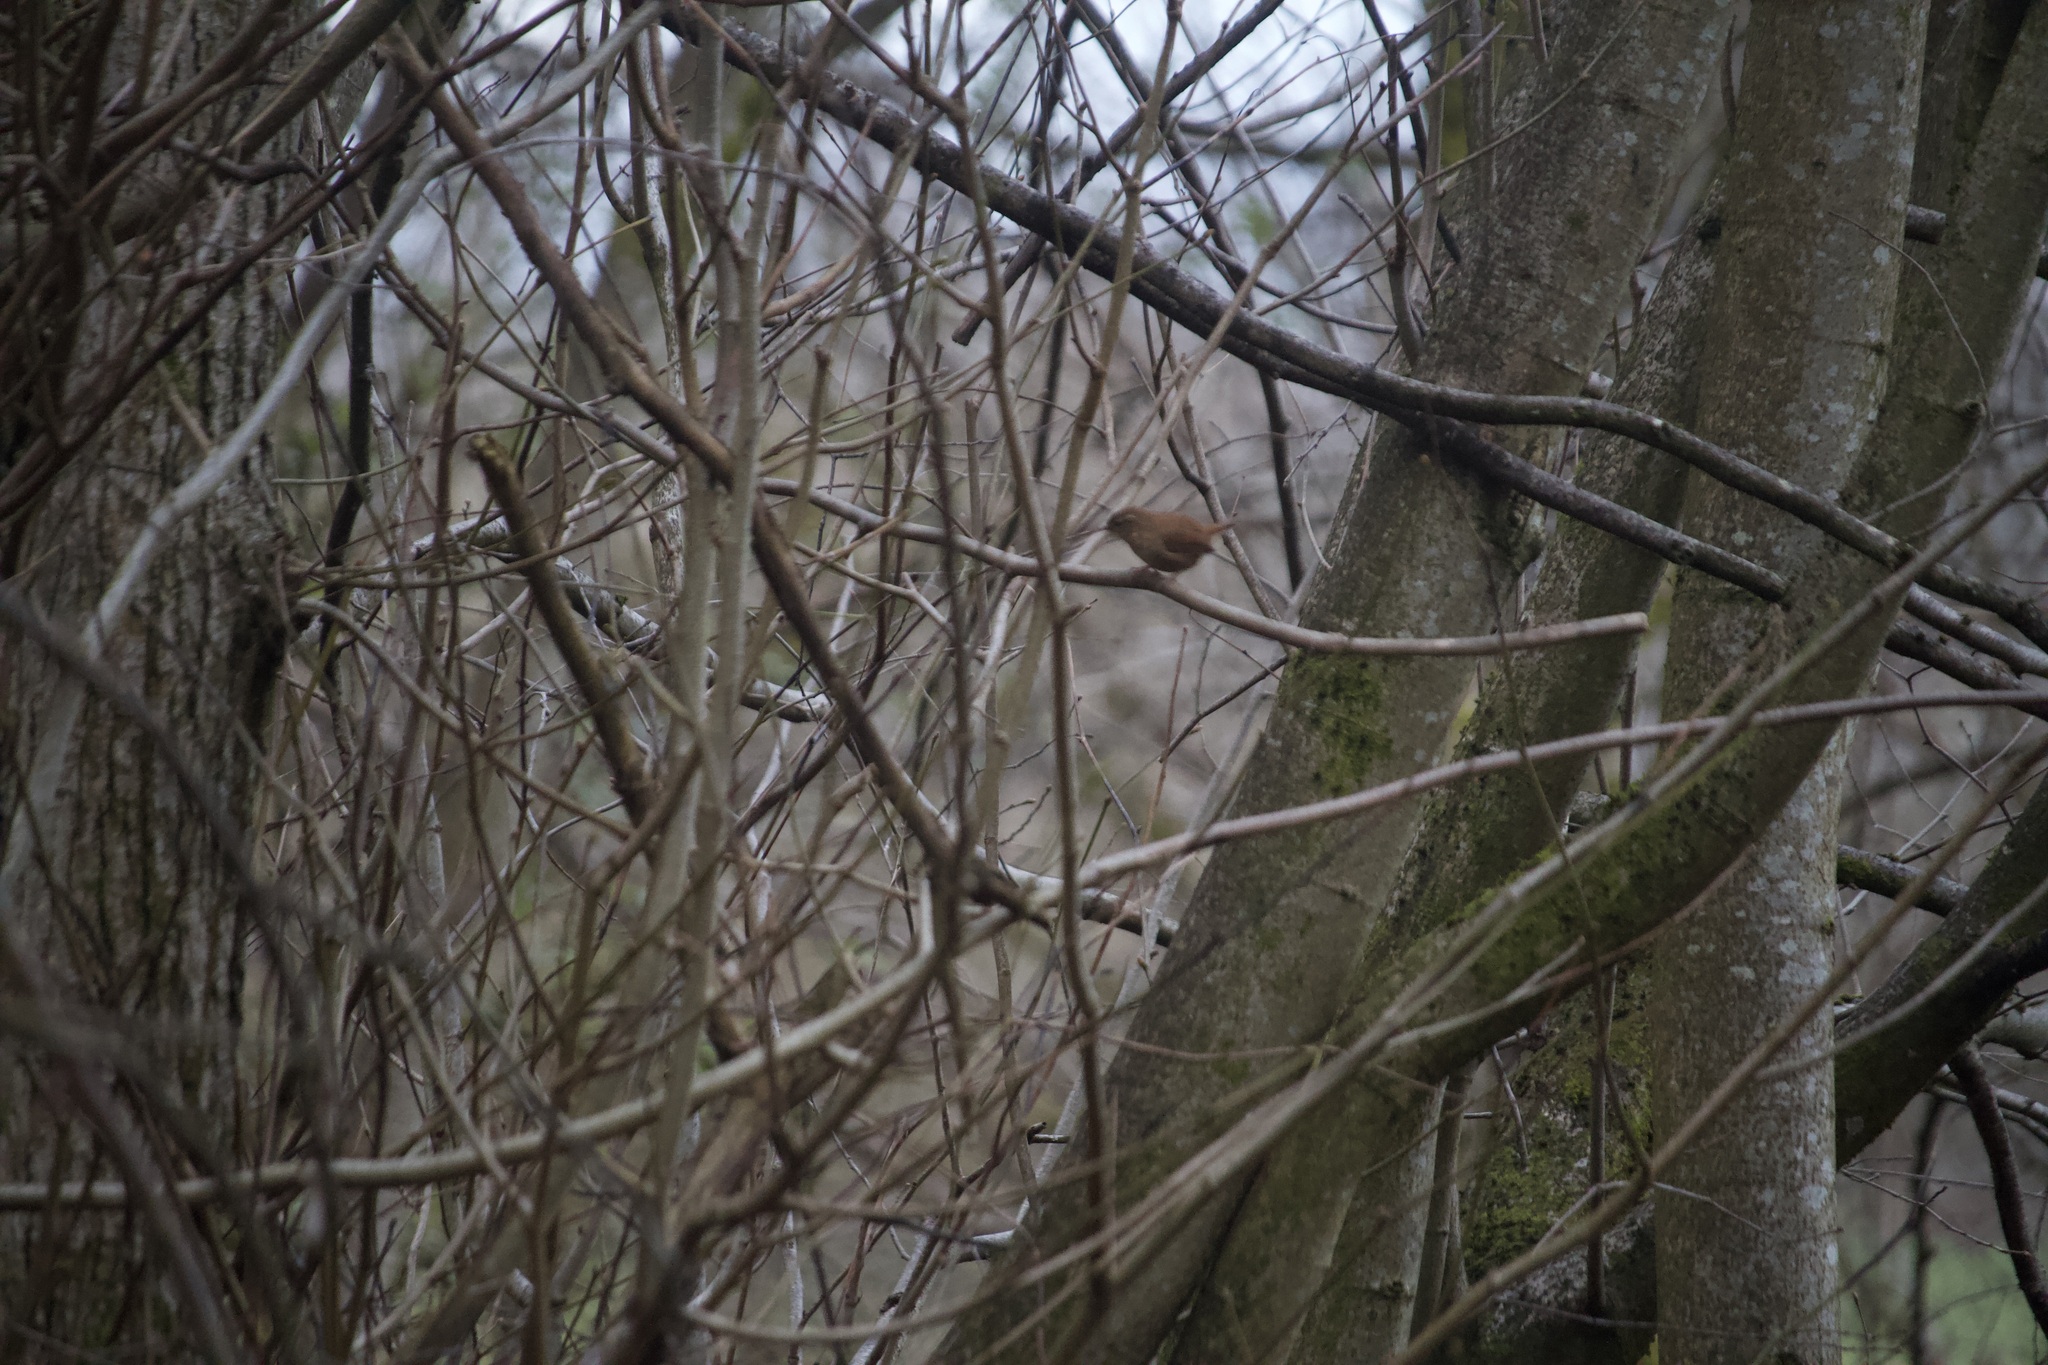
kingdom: Animalia
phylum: Chordata
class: Aves
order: Passeriformes
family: Troglodytidae
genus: Troglodytes
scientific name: Troglodytes troglodytes
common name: Eurasian wren
